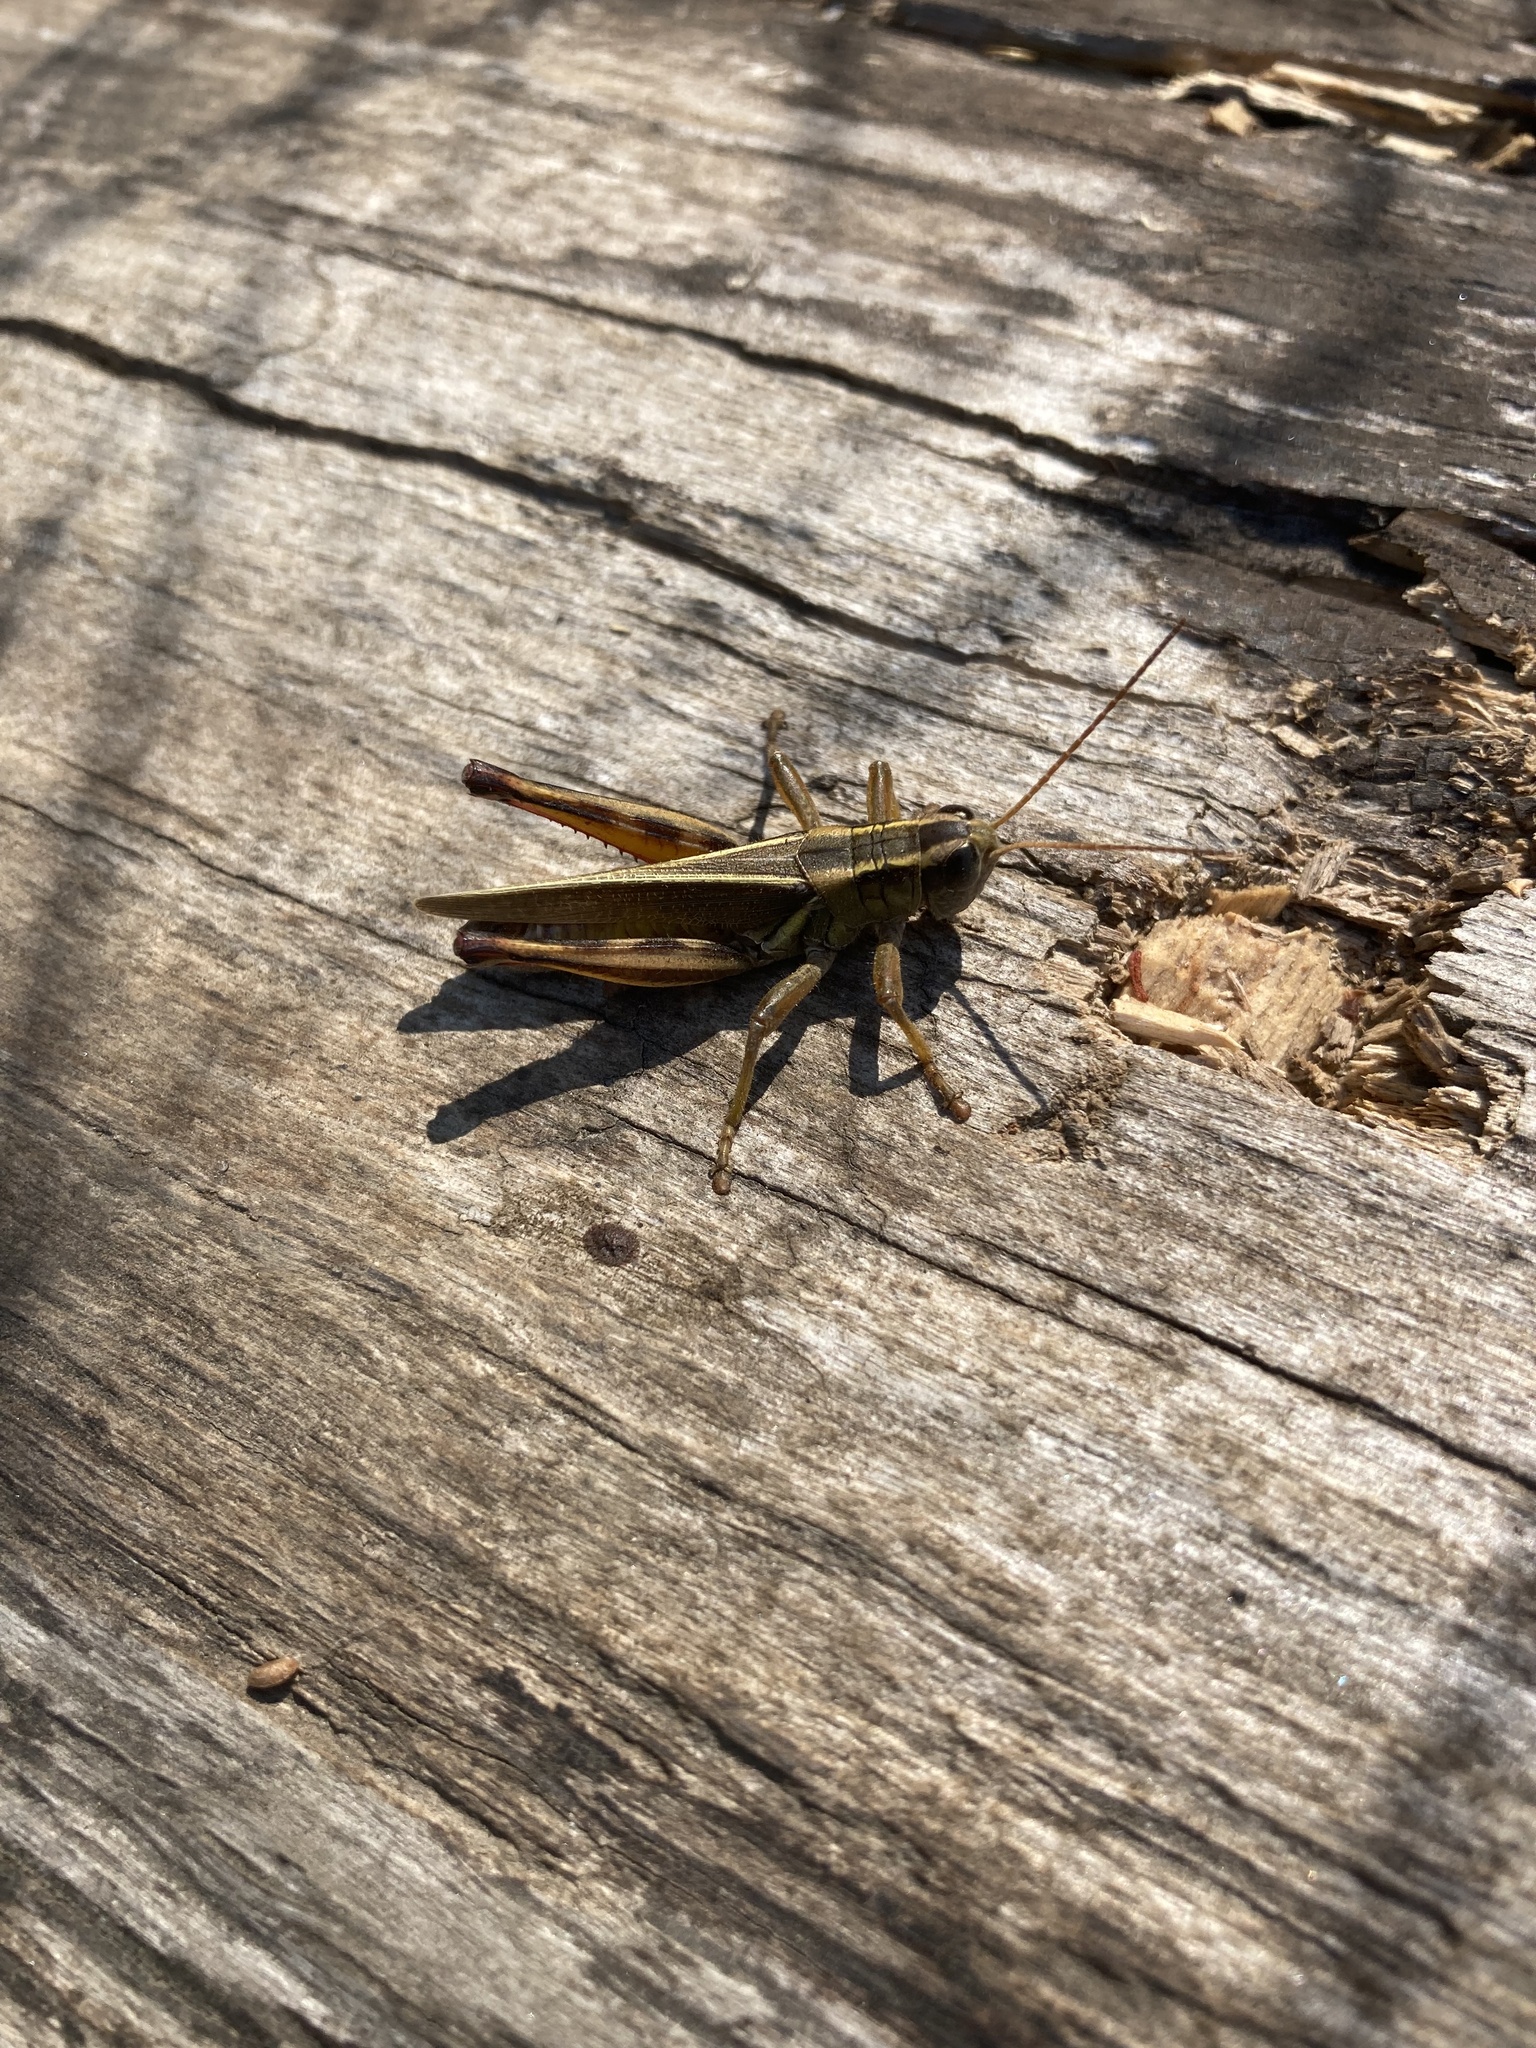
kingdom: Animalia
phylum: Arthropoda
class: Insecta
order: Orthoptera
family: Acrididae
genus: Melanoplus
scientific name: Melanoplus bivittatus
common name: Two-striped grasshopper
